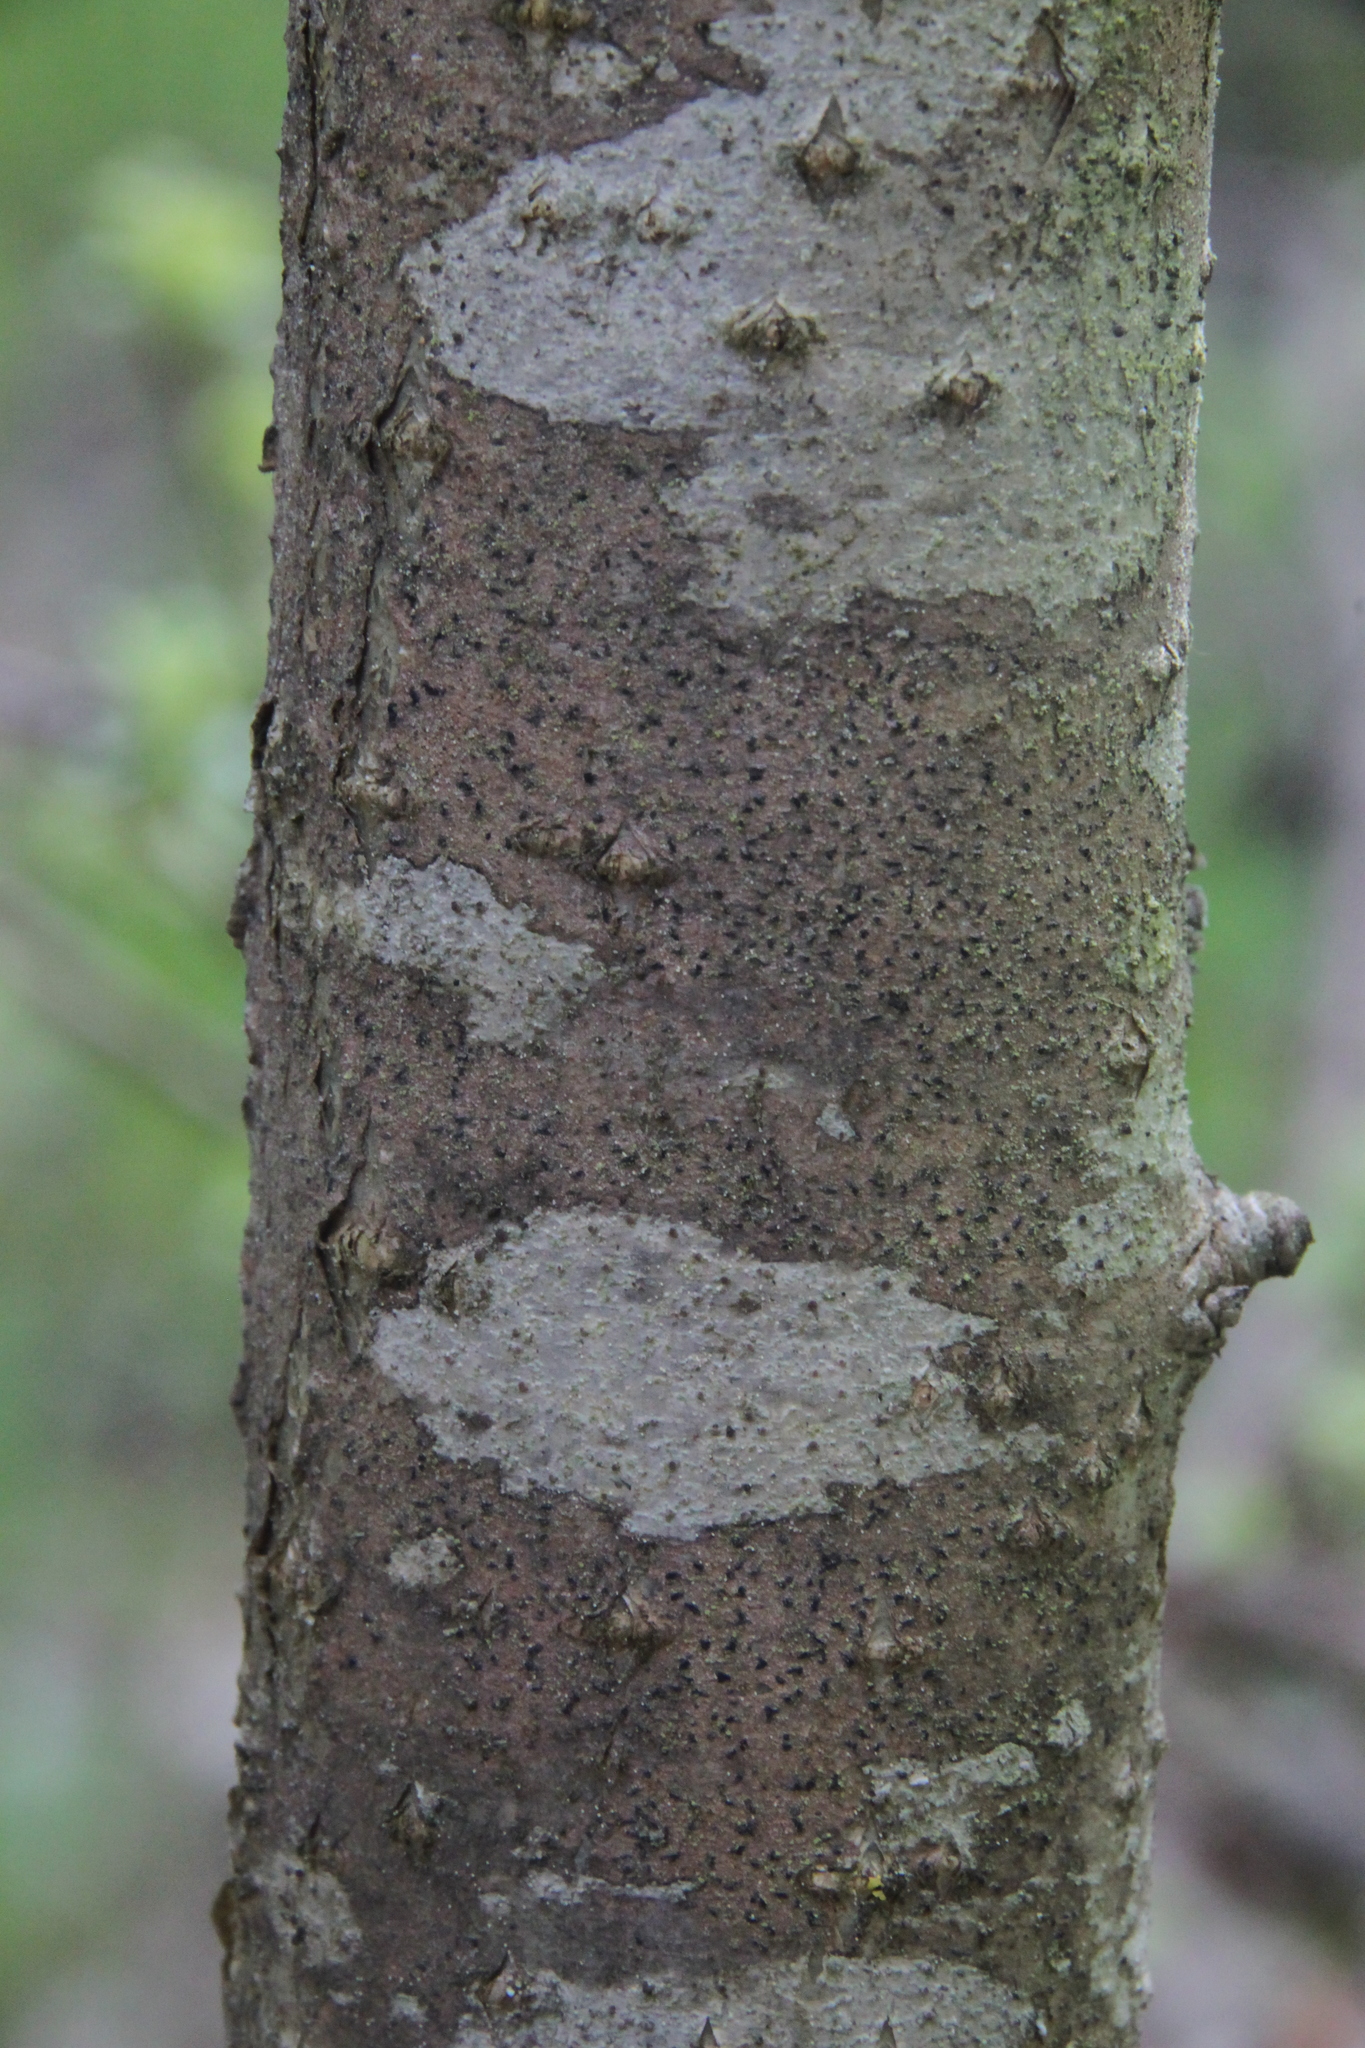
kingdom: Plantae
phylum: Tracheophyta
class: Magnoliopsida
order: Rosales
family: Rosaceae
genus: Sorbus
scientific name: Sorbus aucuparia
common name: Rowan
